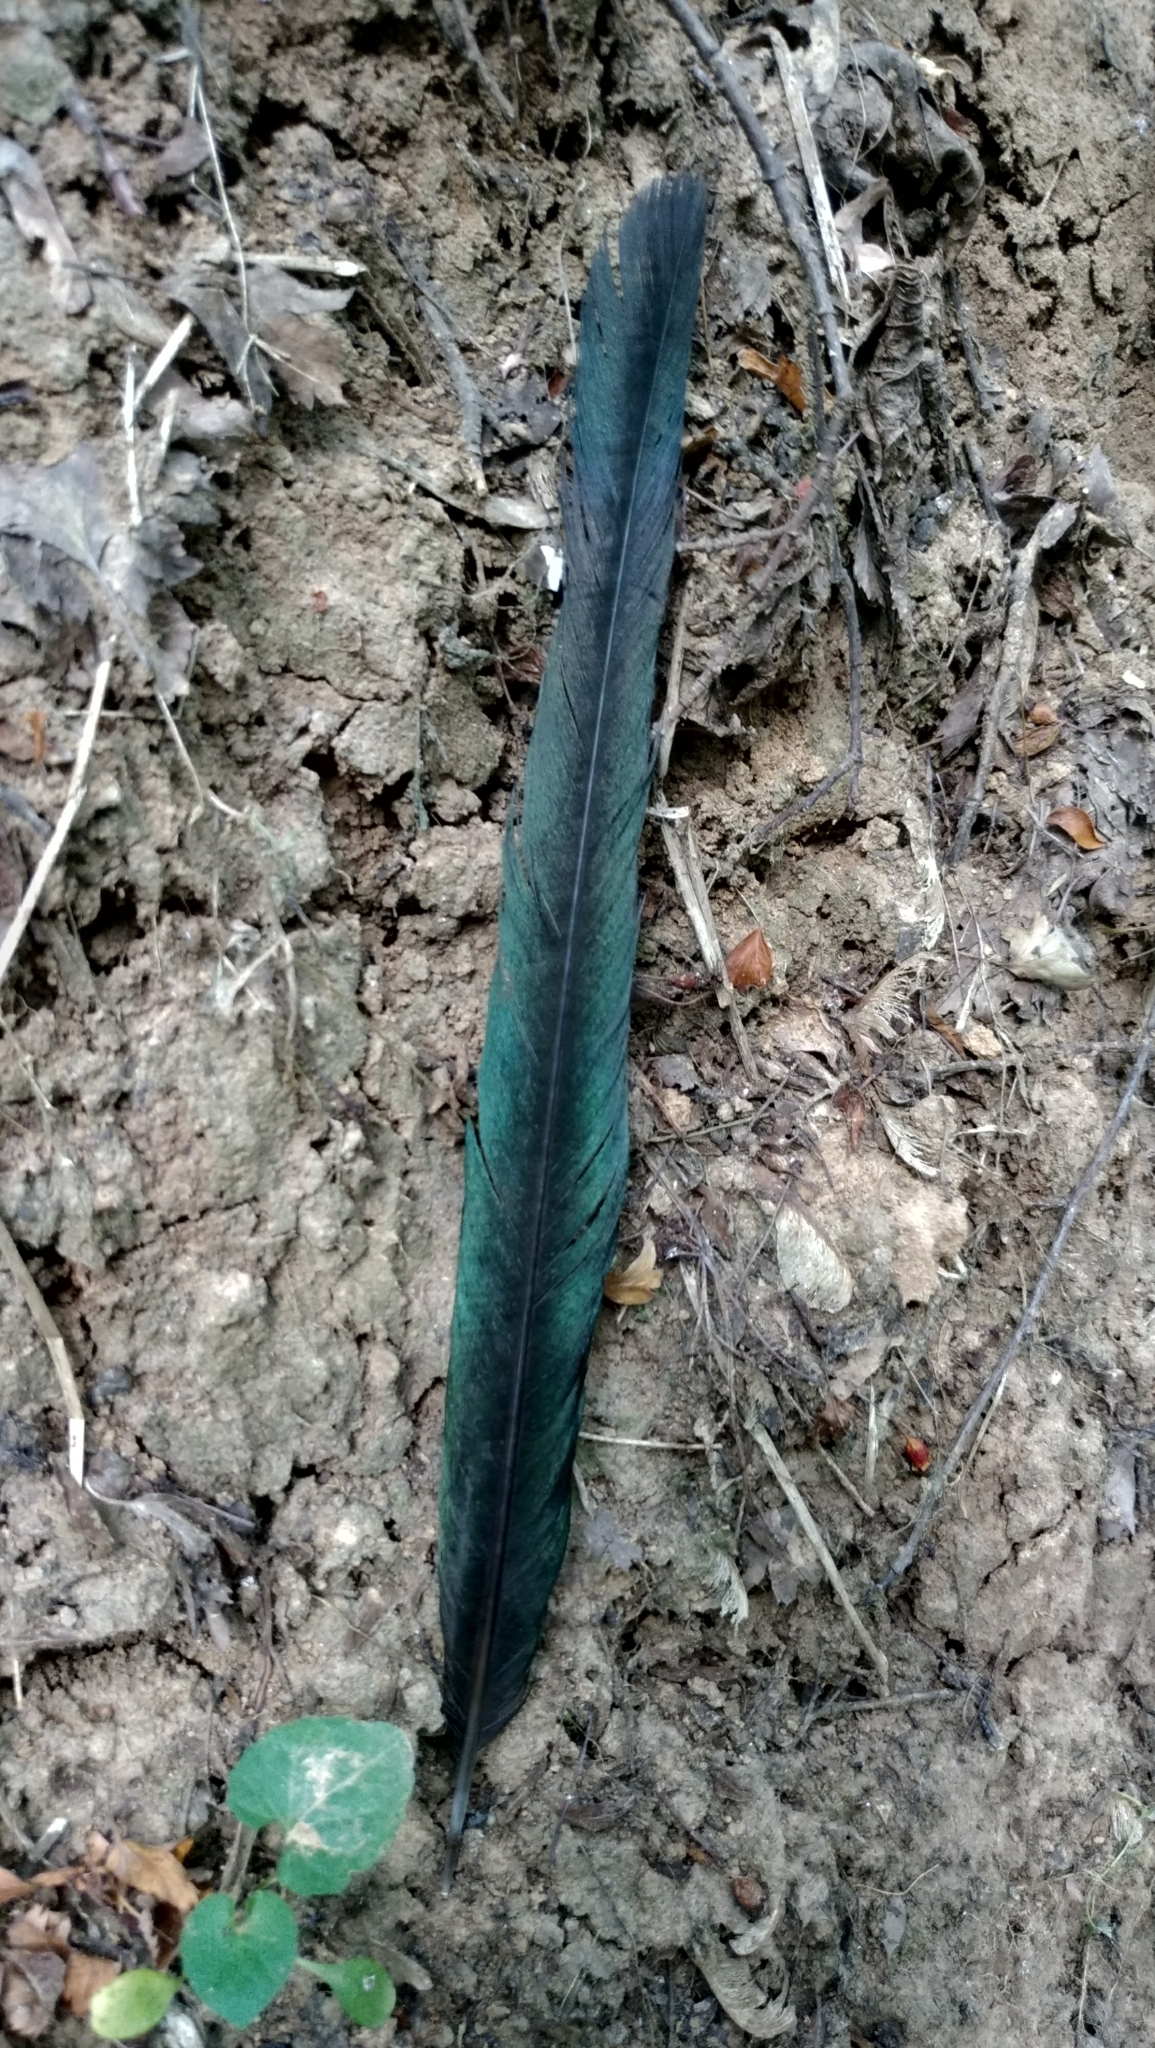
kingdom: Animalia
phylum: Chordata
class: Aves
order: Passeriformes
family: Corvidae
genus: Pica
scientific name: Pica pica
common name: Eurasian magpie
